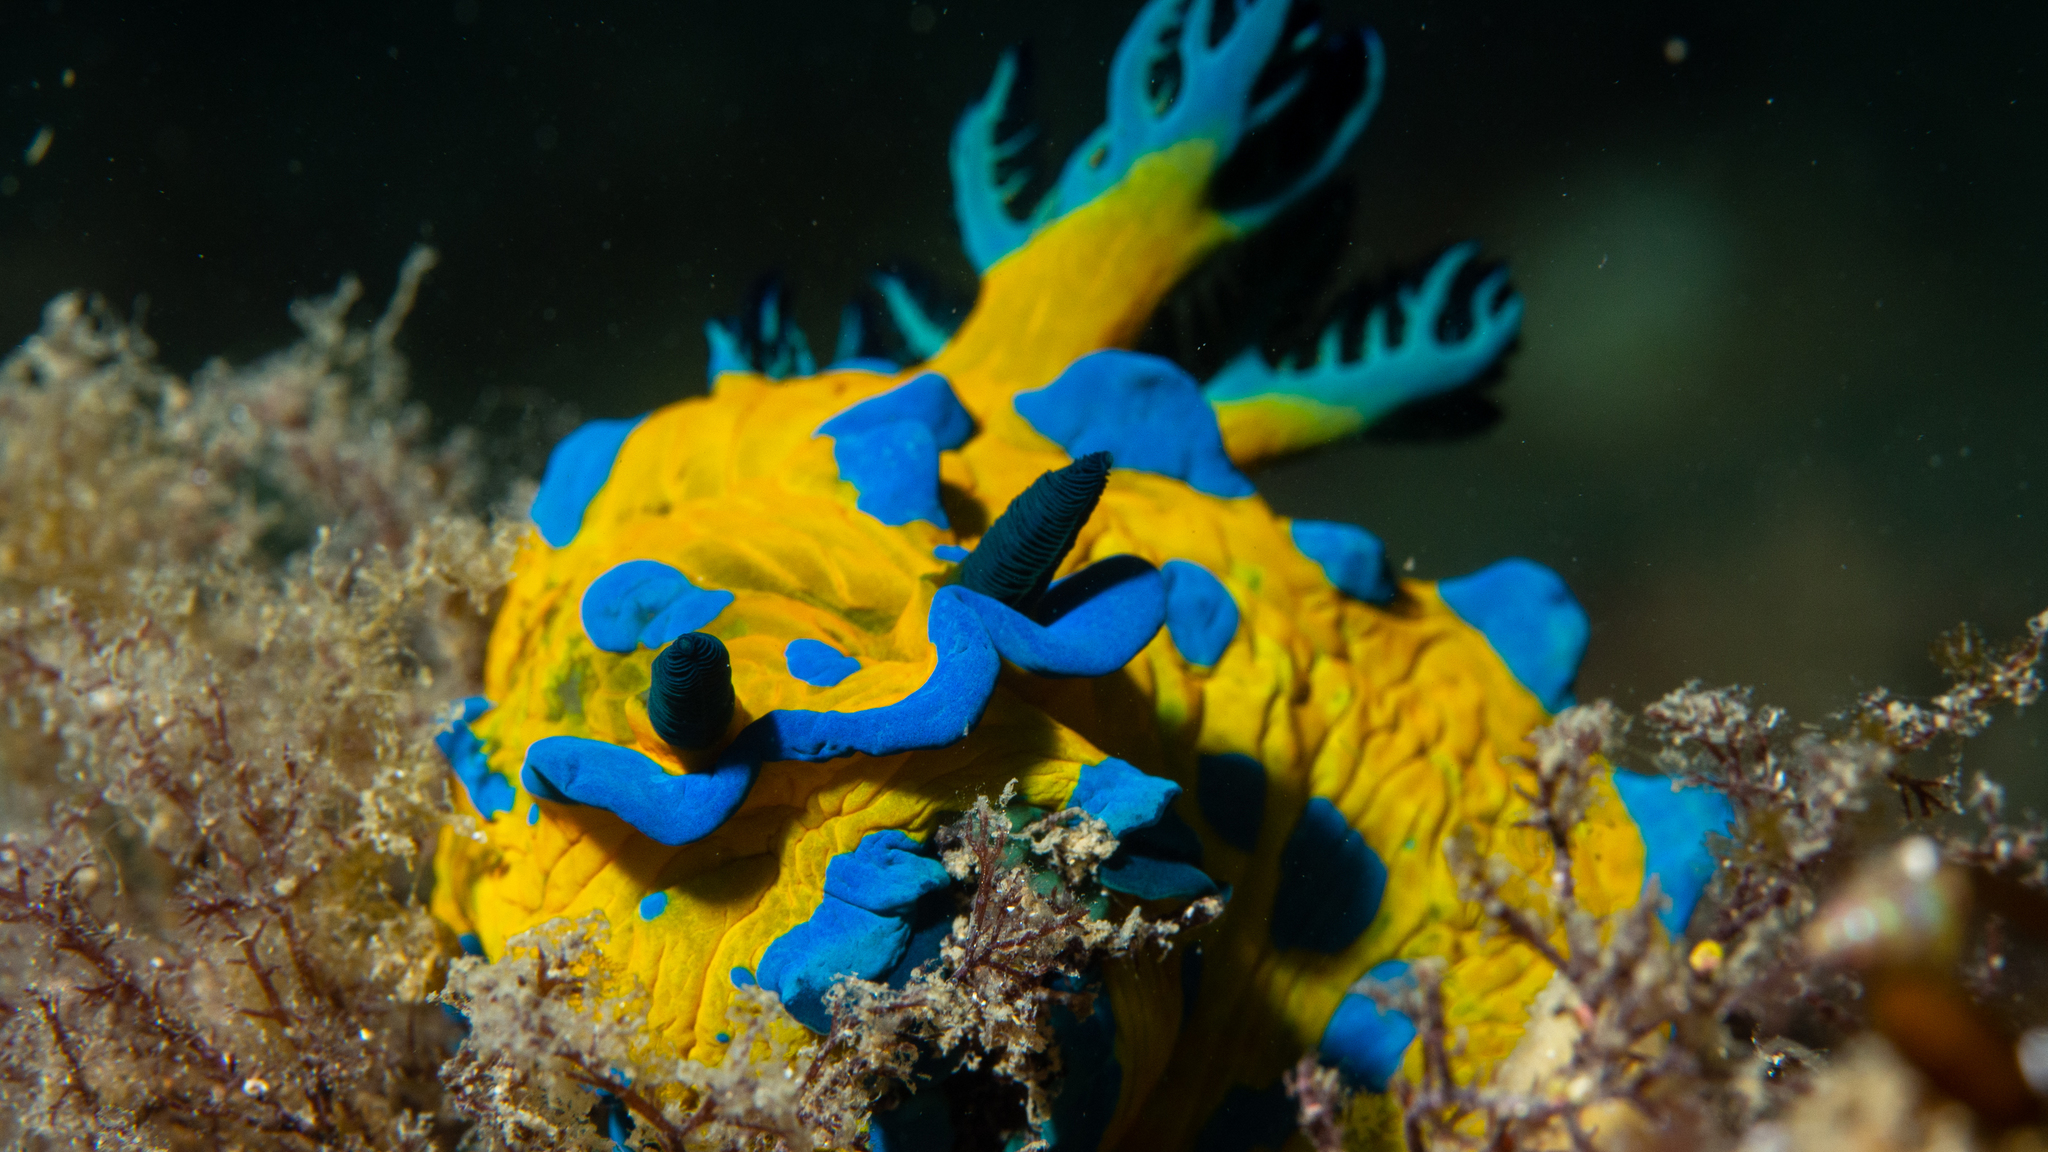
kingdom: Animalia
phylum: Mollusca
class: Gastropoda
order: Nudibranchia
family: Polyceridae
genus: Tambja
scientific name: Tambja verconis
